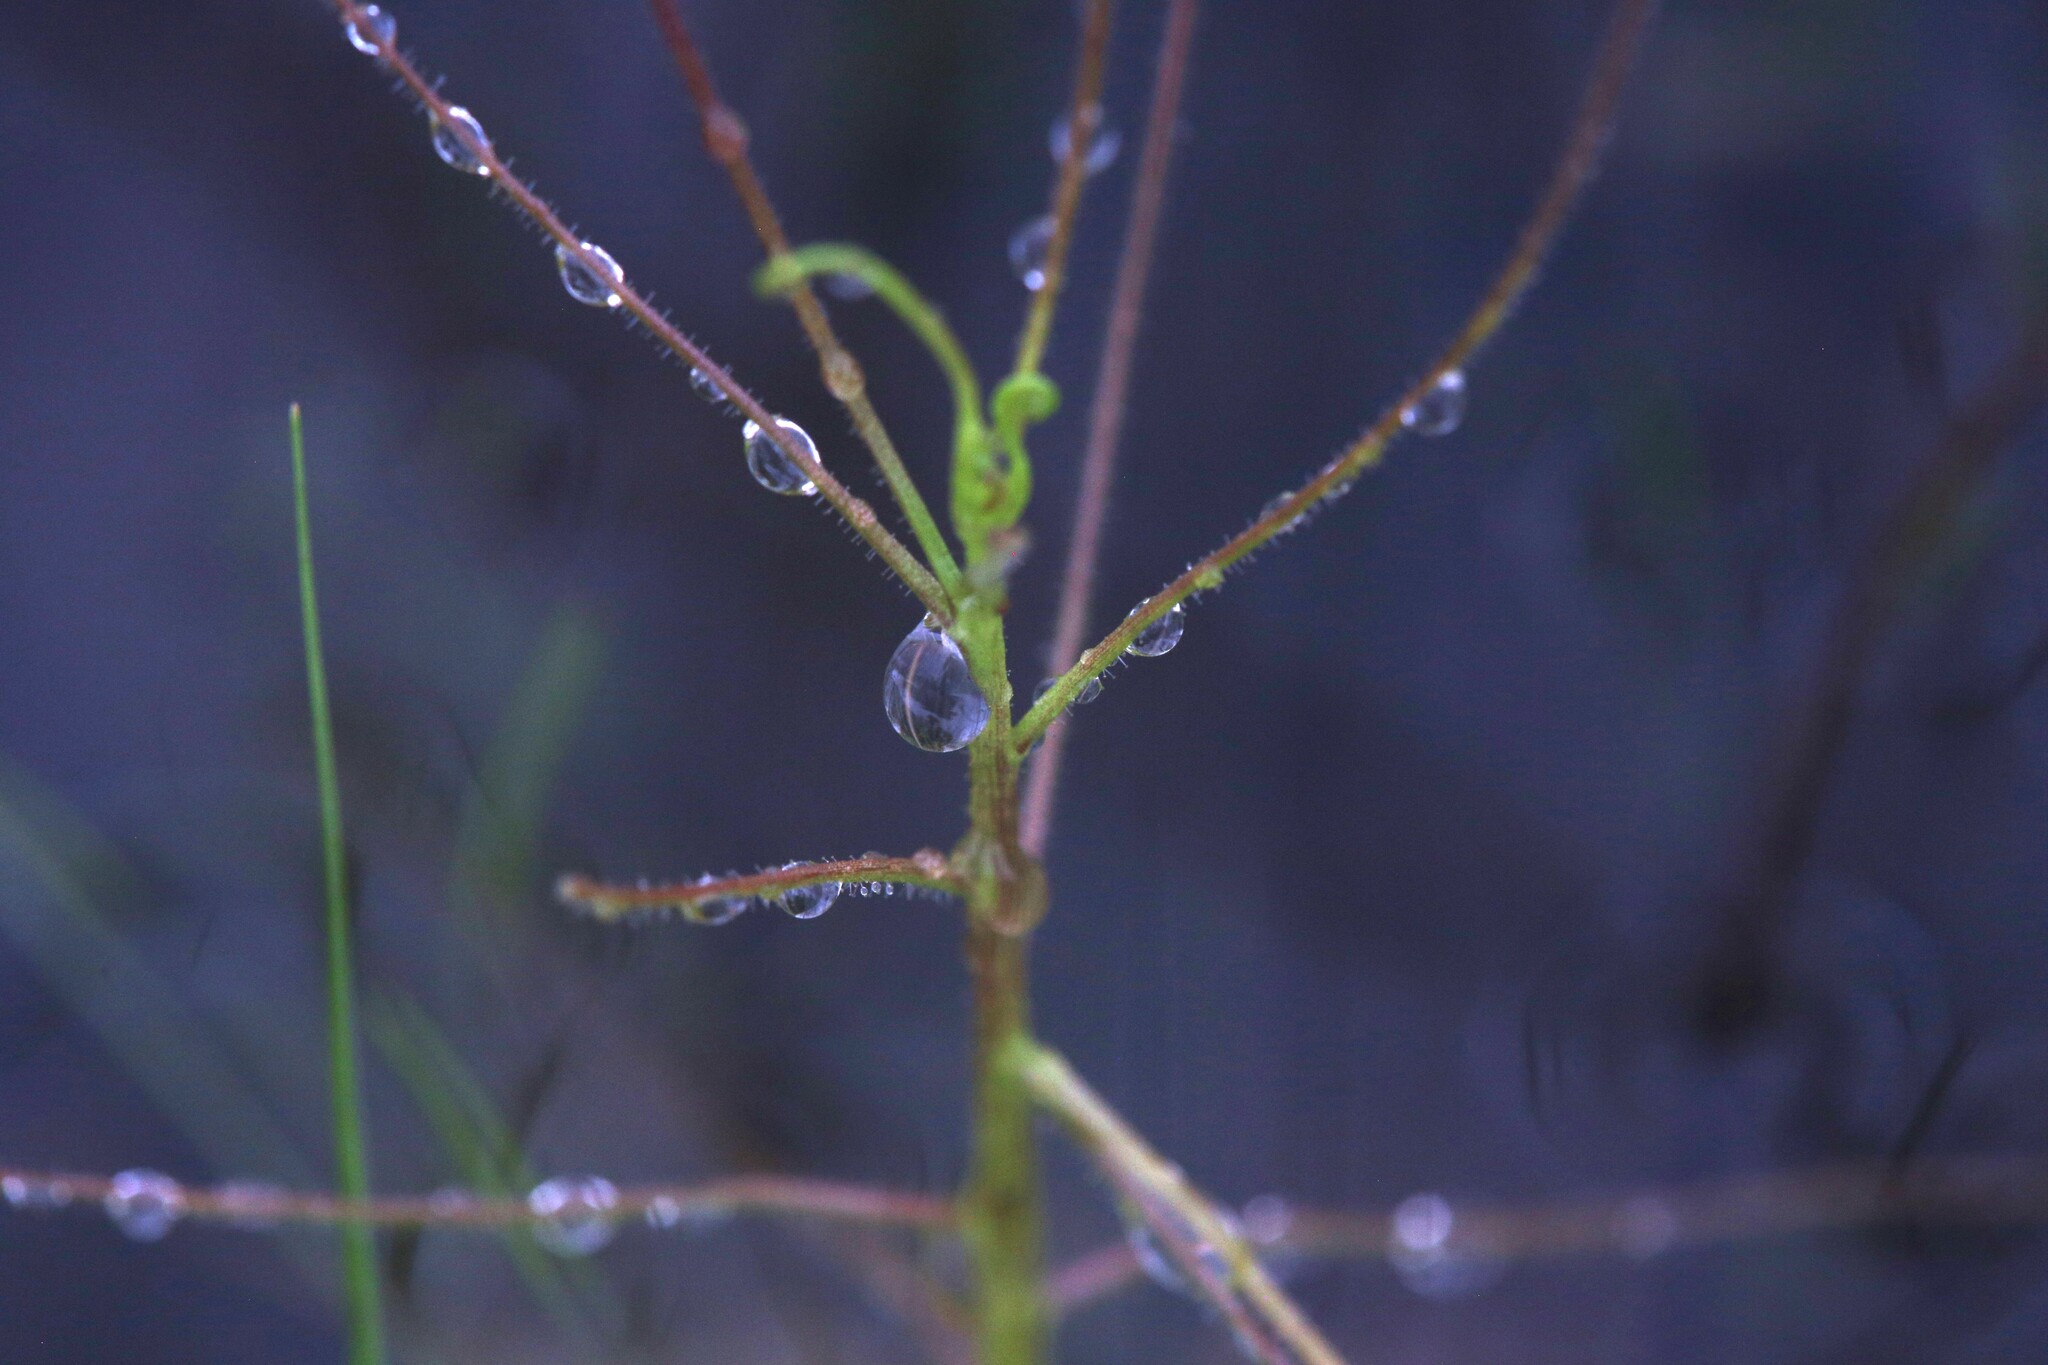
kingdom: Plantae
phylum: Tracheophyta
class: Magnoliopsida
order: Lamiales
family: Byblidaceae
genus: Byblis
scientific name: Byblis aquatica
